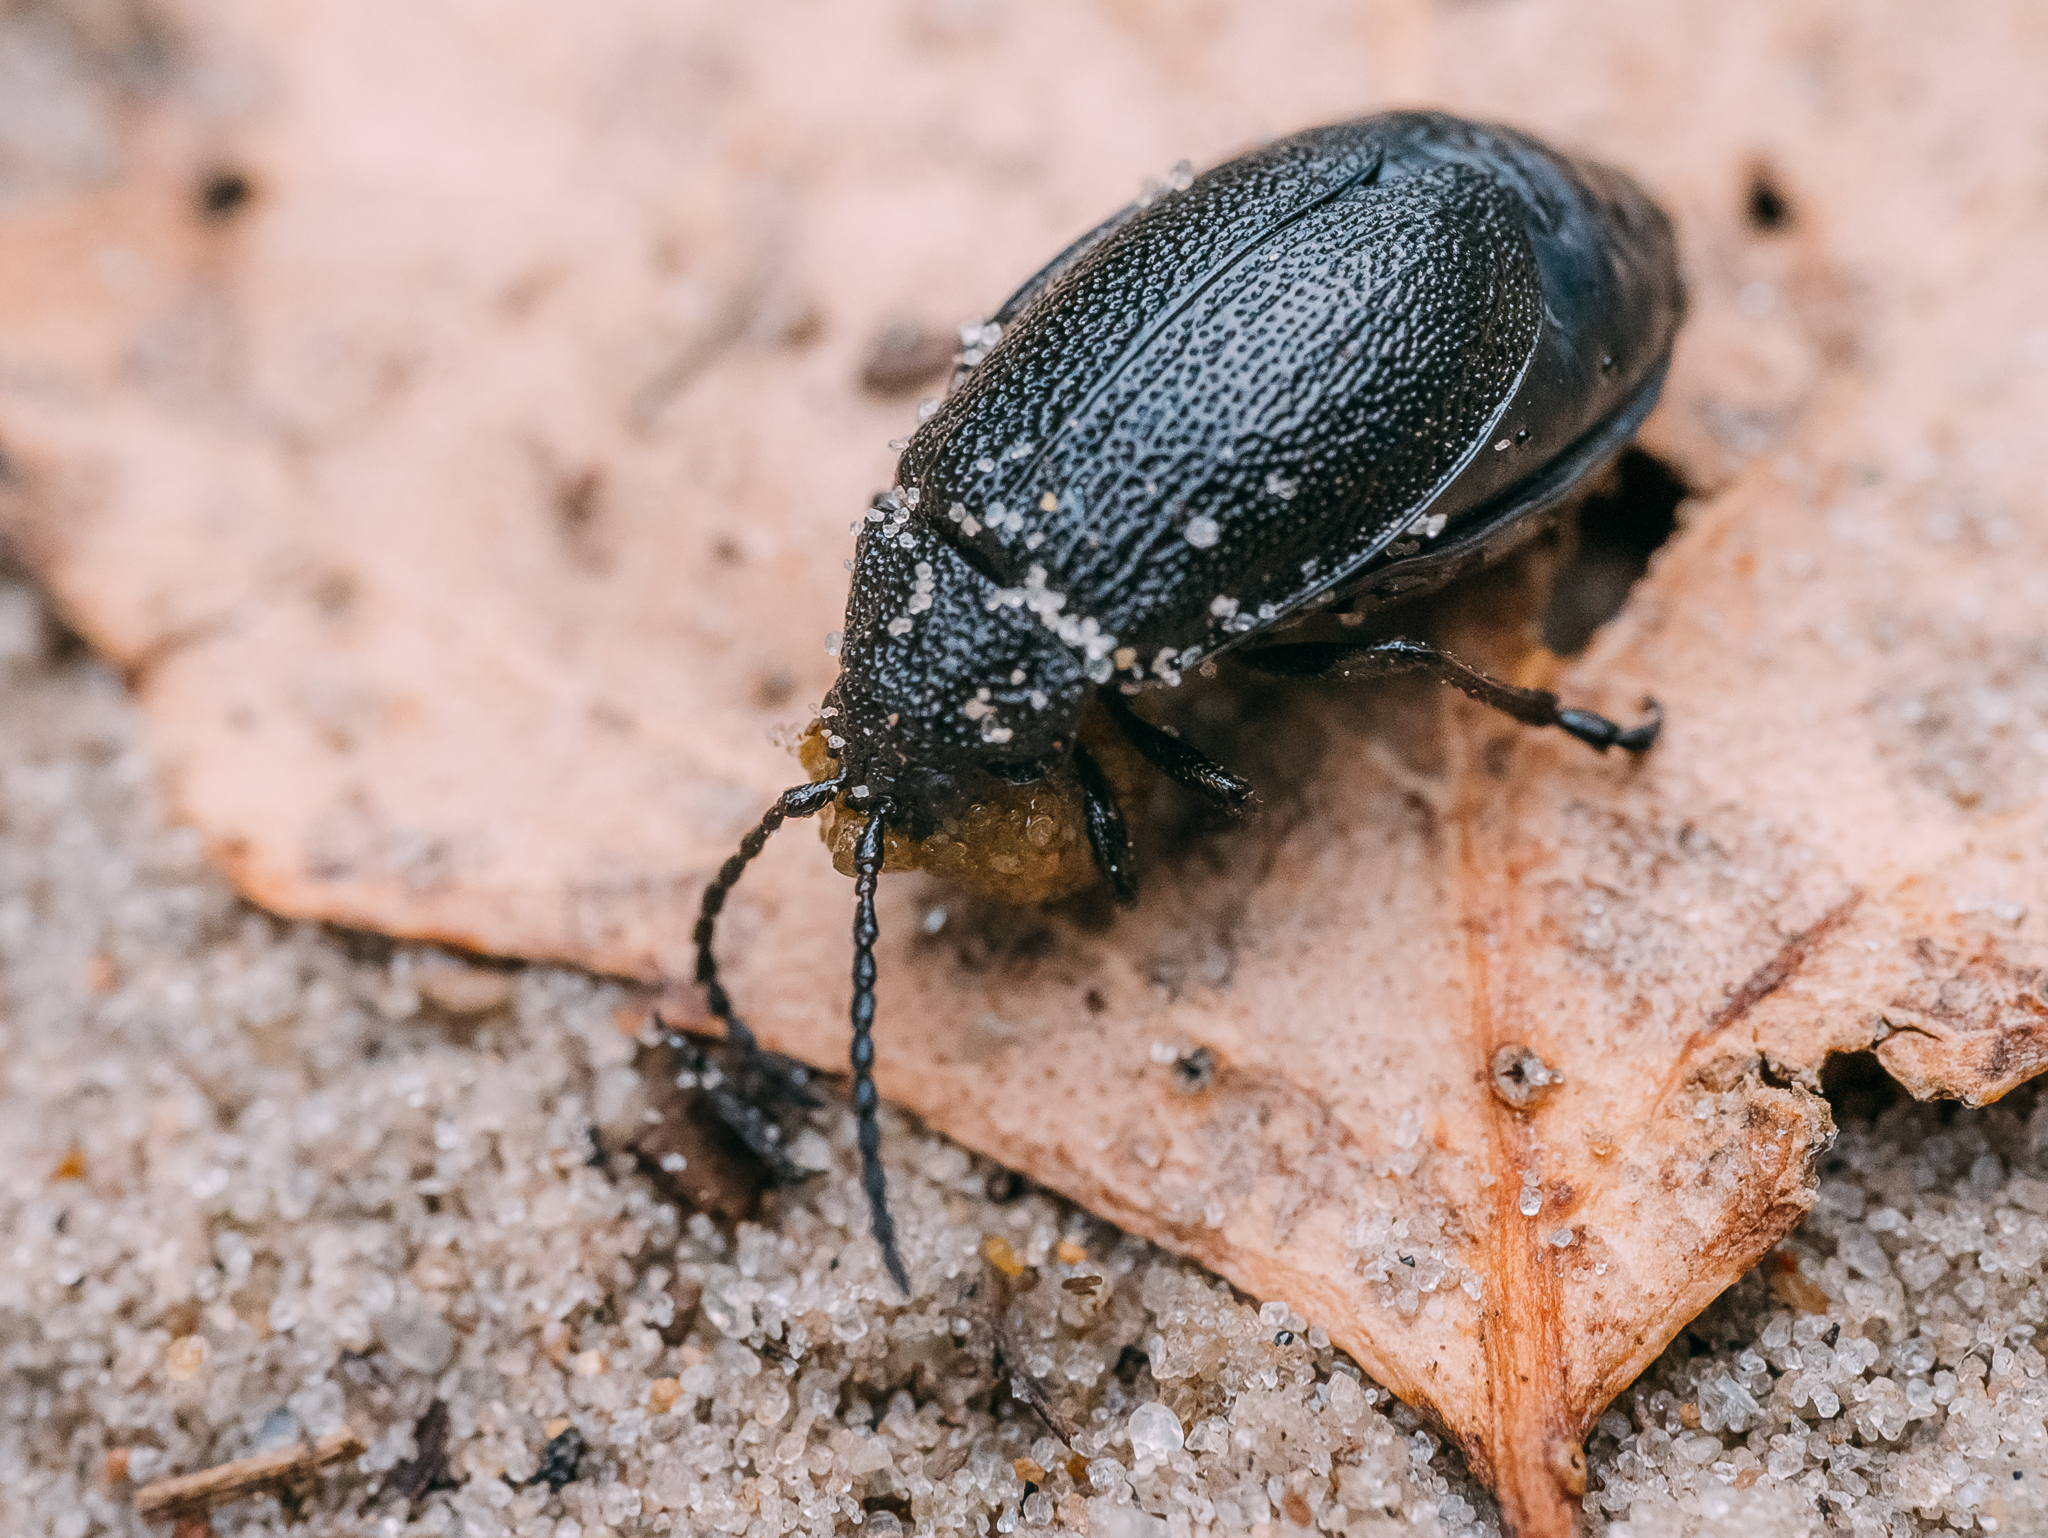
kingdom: Animalia
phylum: Arthropoda
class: Insecta
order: Coleoptera
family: Chrysomelidae
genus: Galeruca
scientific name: Galeruca tanaceti
